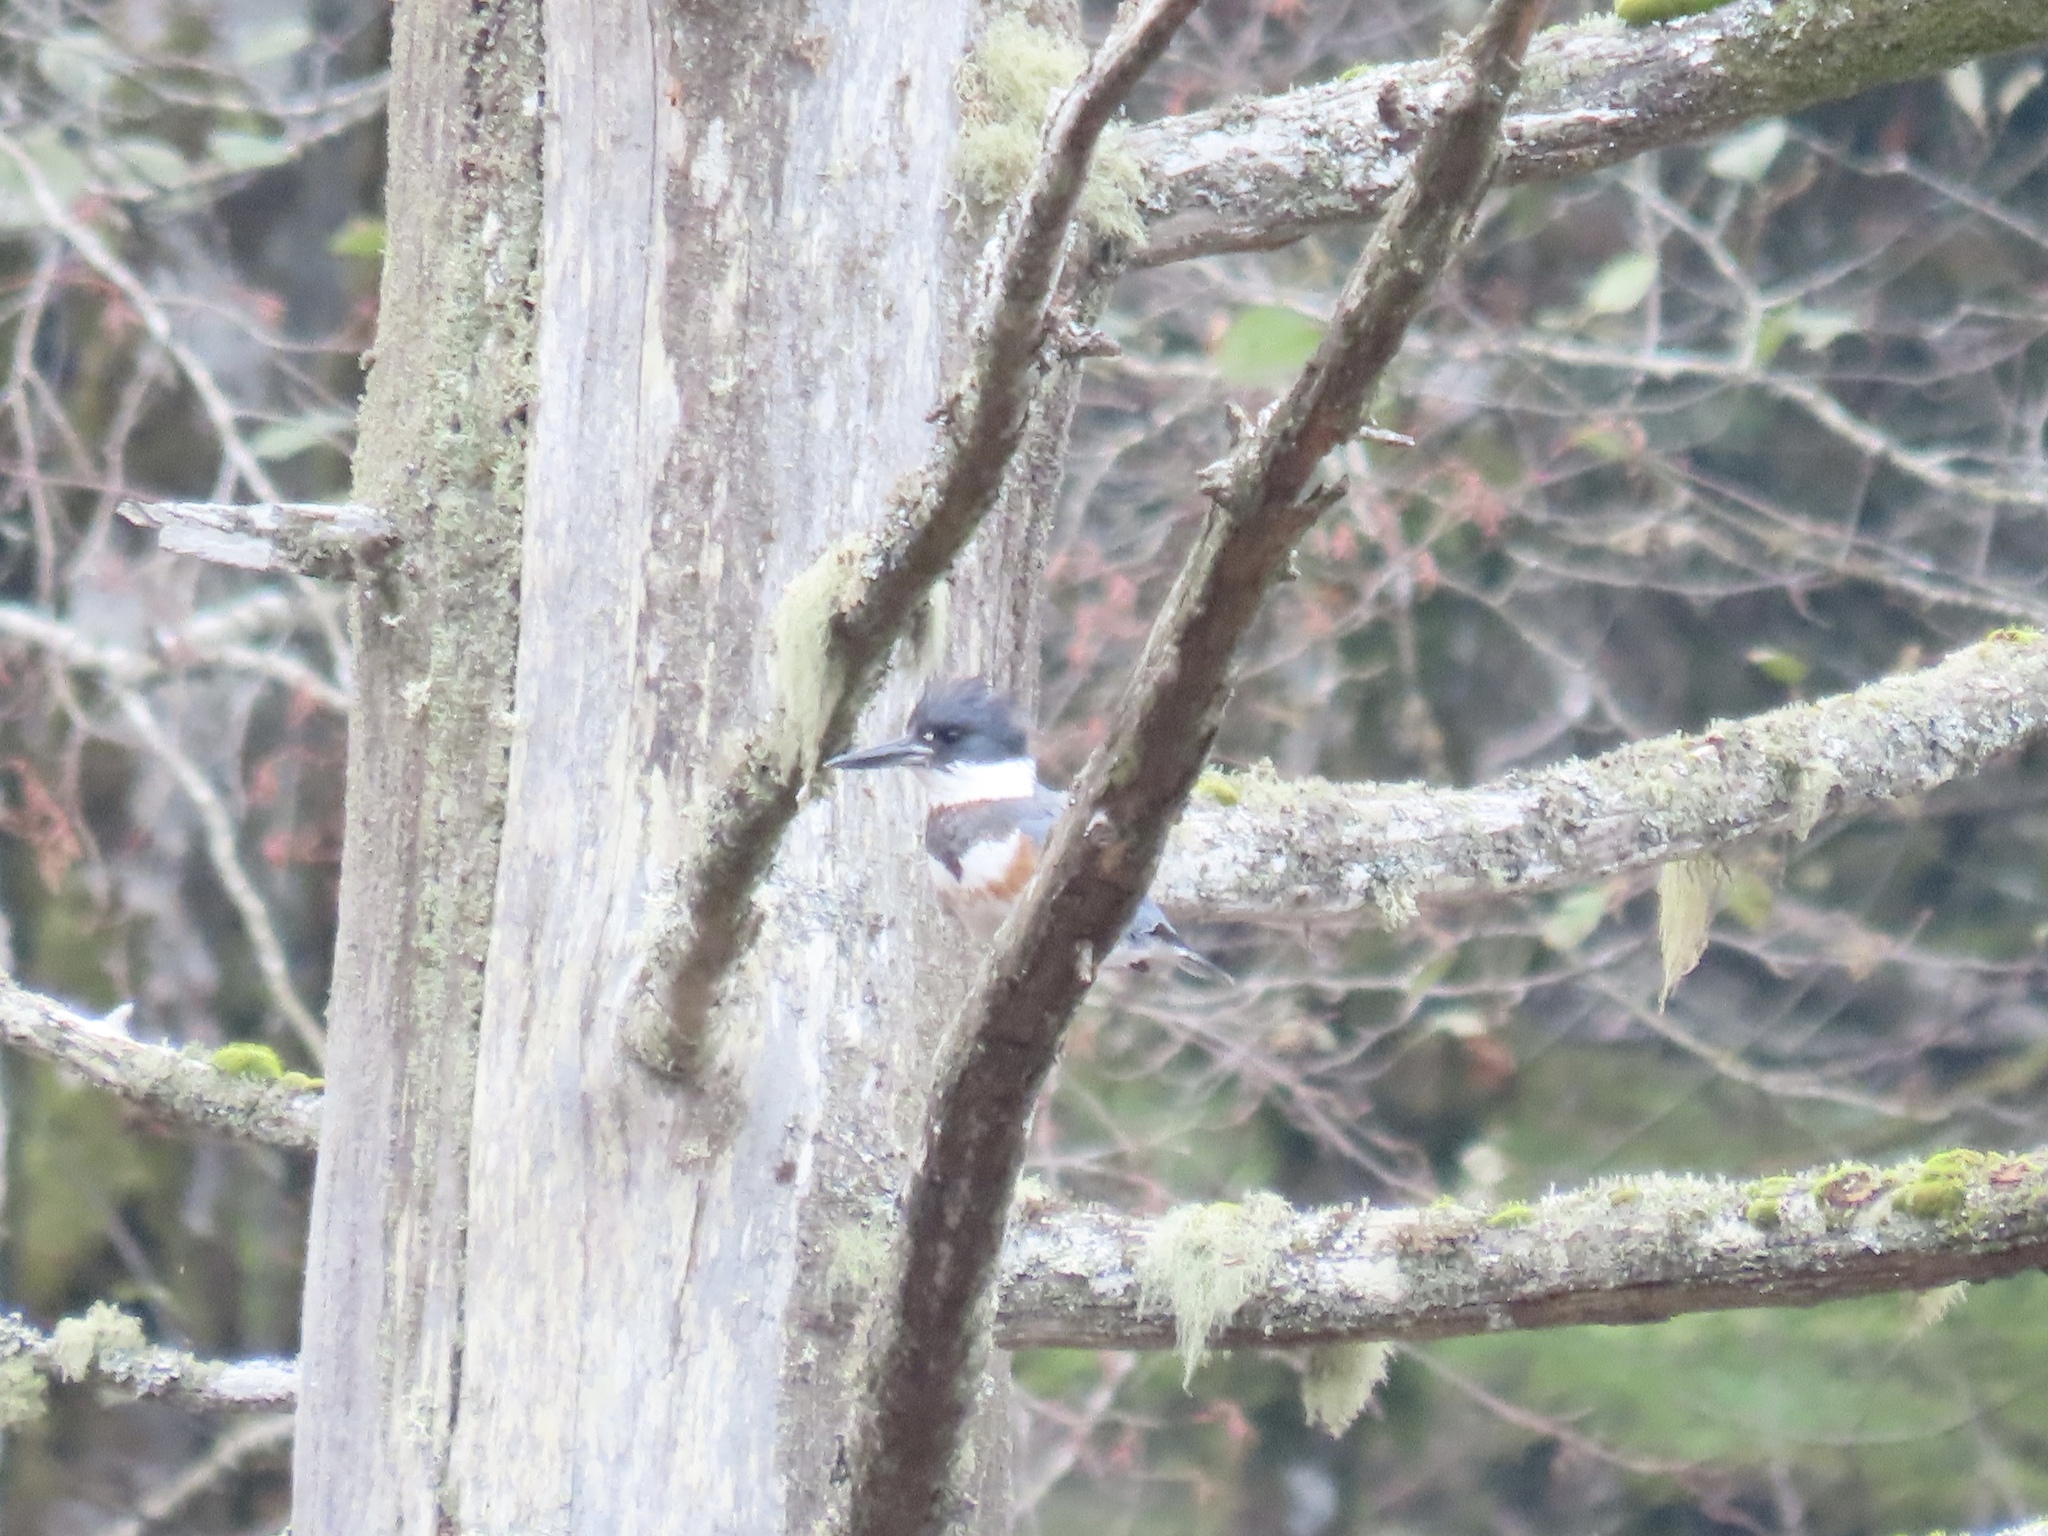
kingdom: Animalia
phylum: Chordata
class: Aves
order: Coraciiformes
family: Alcedinidae
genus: Megaceryle
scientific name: Megaceryle alcyon
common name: Belted kingfisher
